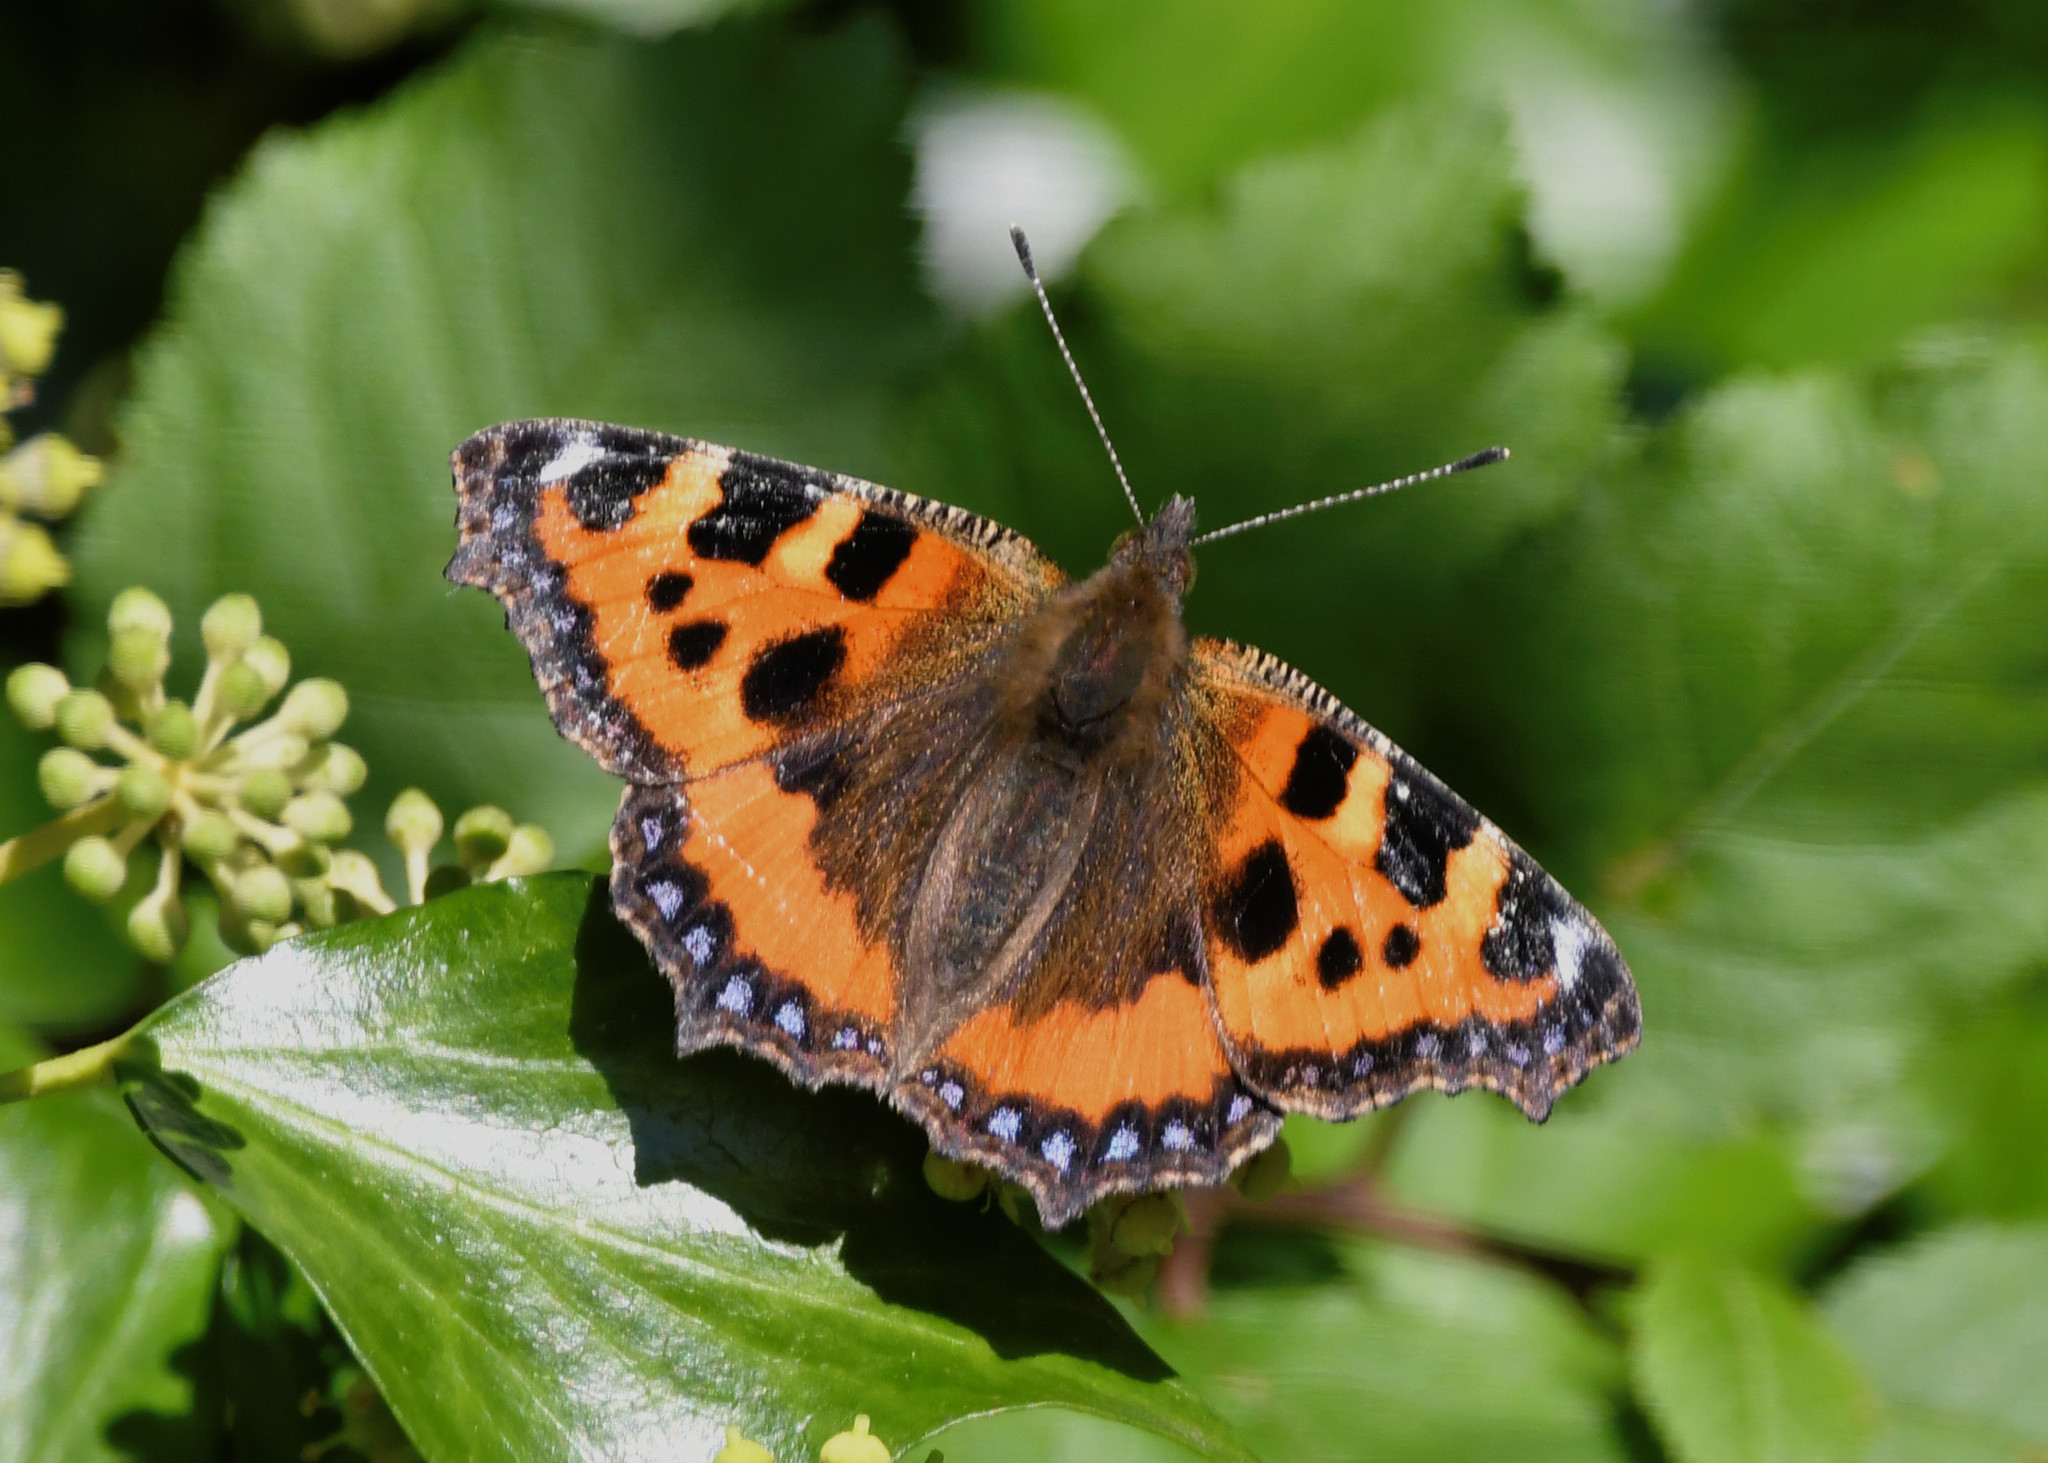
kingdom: Animalia
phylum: Arthropoda
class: Insecta
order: Lepidoptera
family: Nymphalidae
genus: Aglais
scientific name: Aglais urticae
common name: Small tortoiseshell
